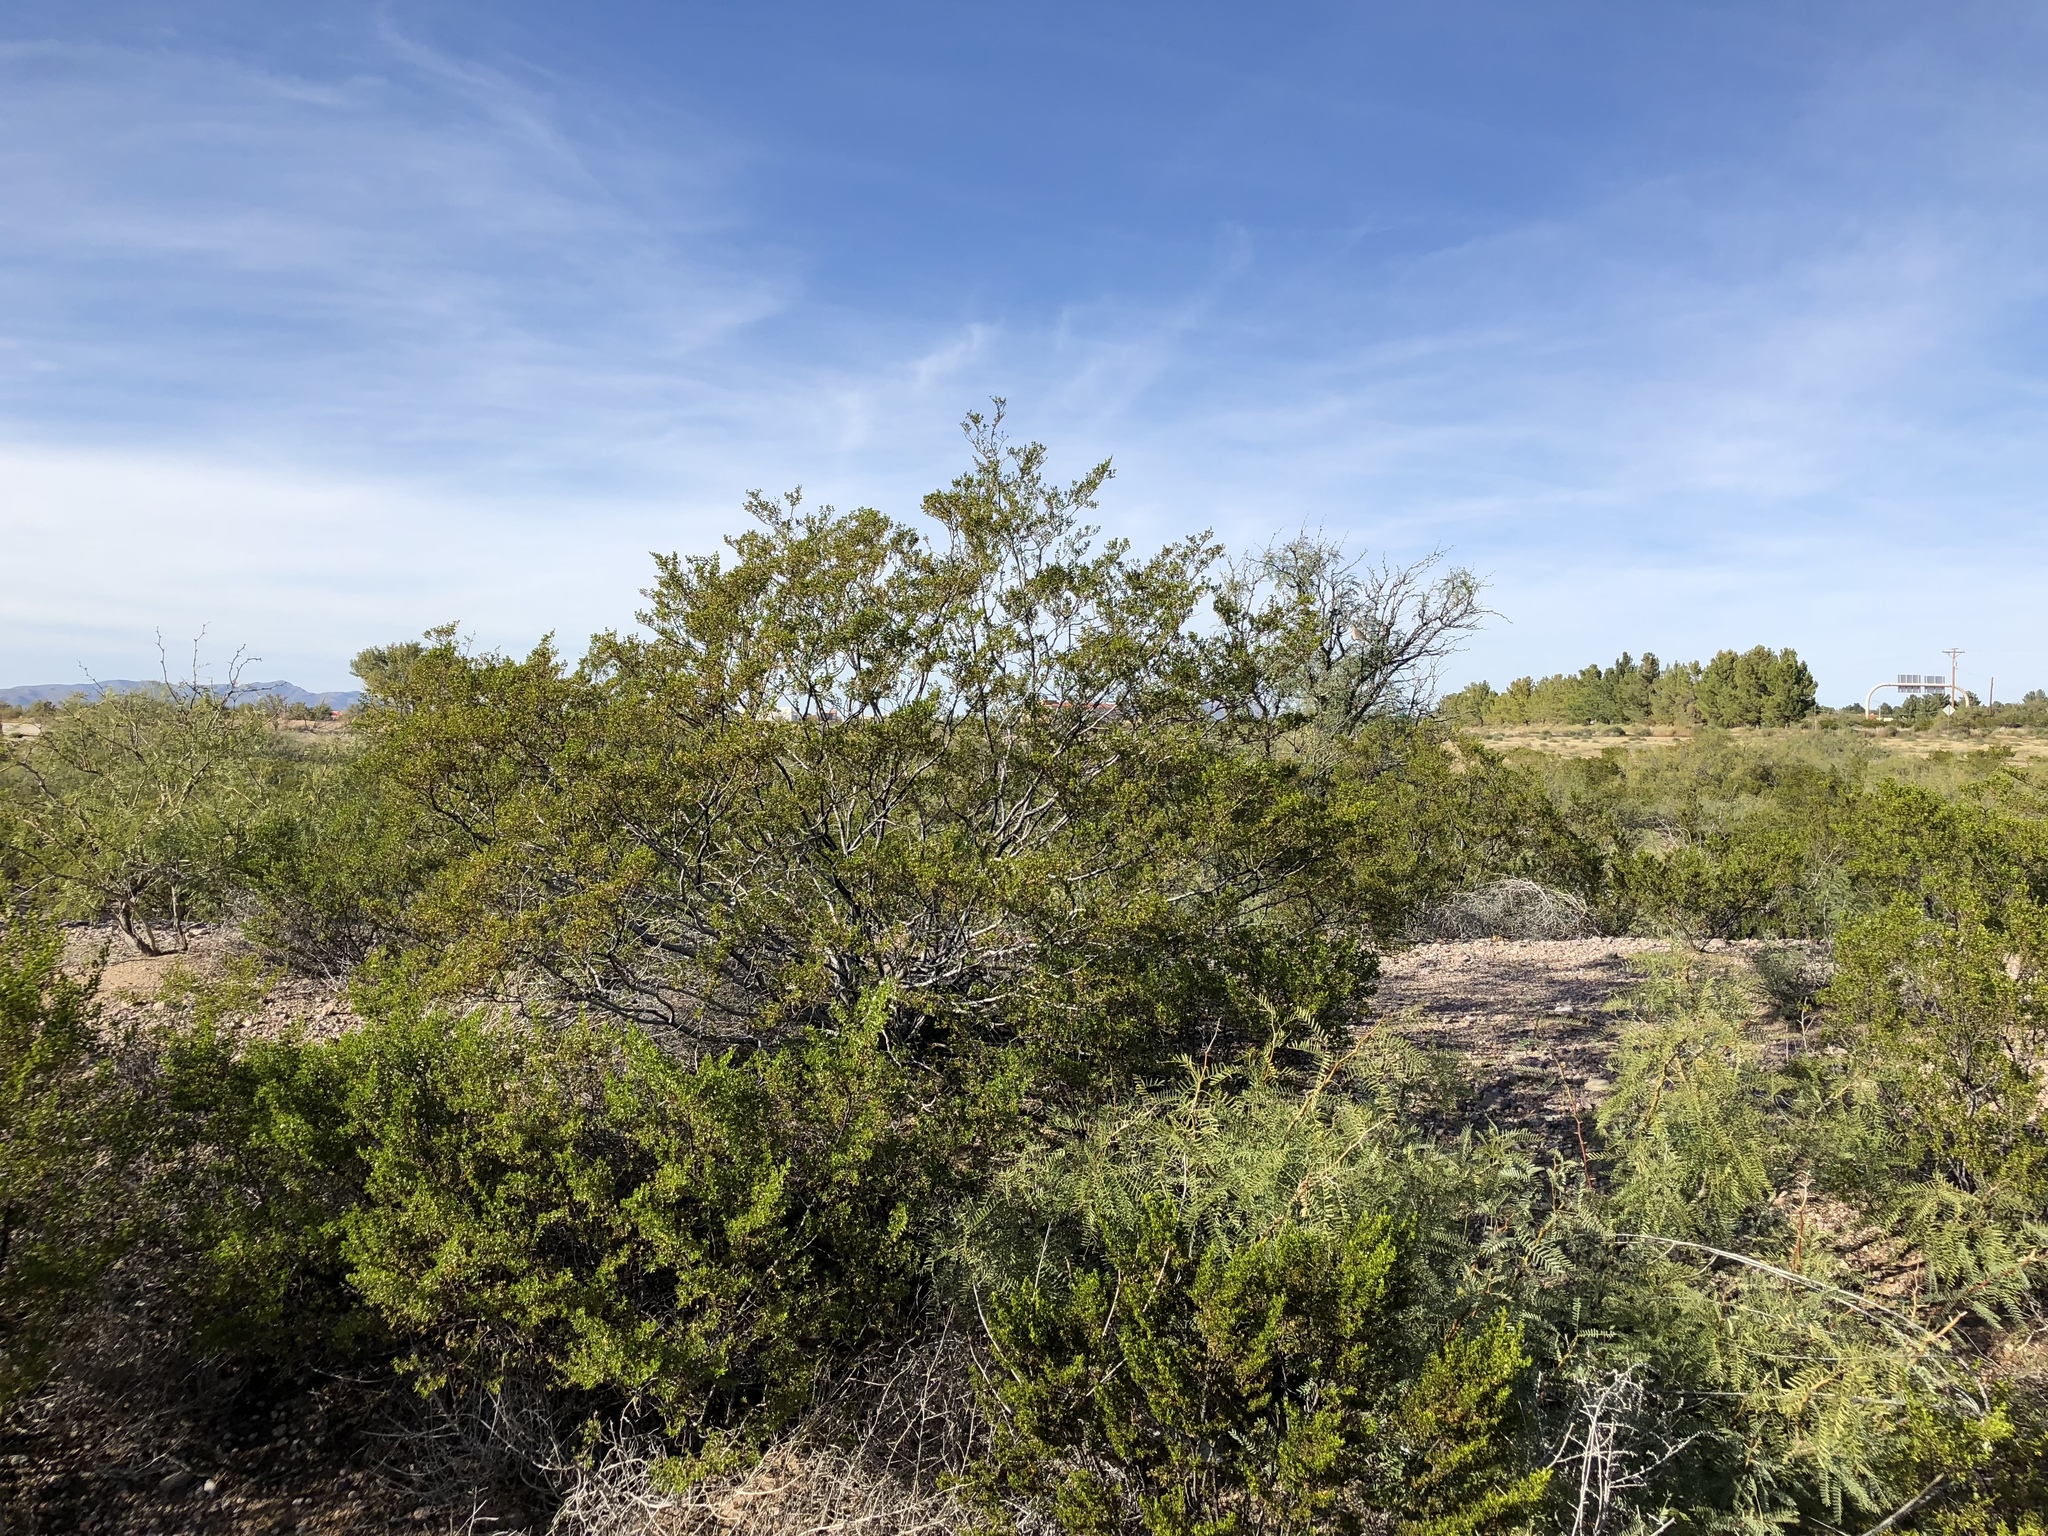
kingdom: Plantae
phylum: Tracheophyta
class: Magnoliopsida
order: Zygophyllales
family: Zygophyllaceae
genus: Larrea
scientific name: Larrea tridentata
